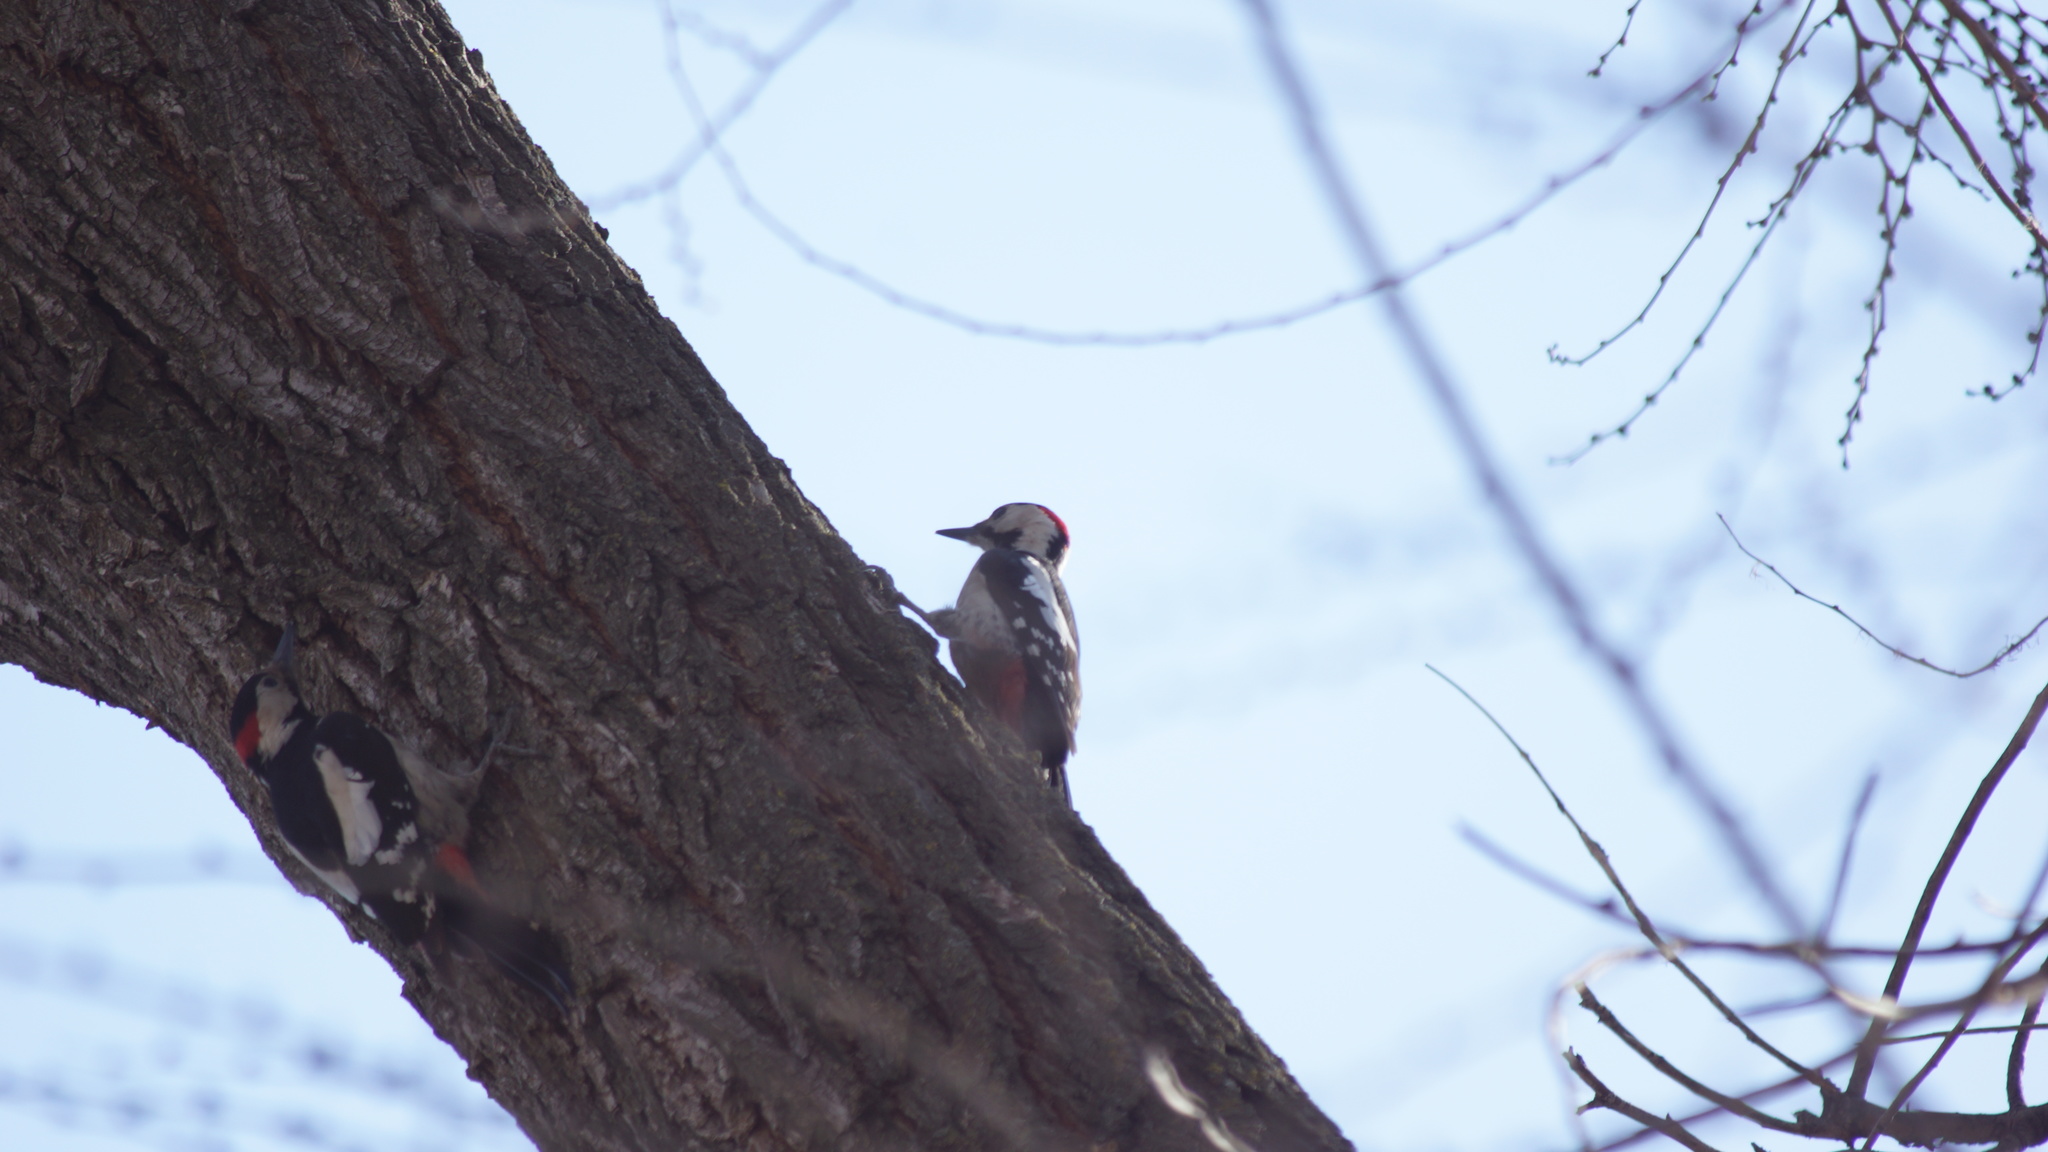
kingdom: Animalia
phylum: Chordata
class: Aves
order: Piciformes
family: Picidae
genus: Dendrocopos
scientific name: Dendrocopos syriacus
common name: Syrian woodpecker
